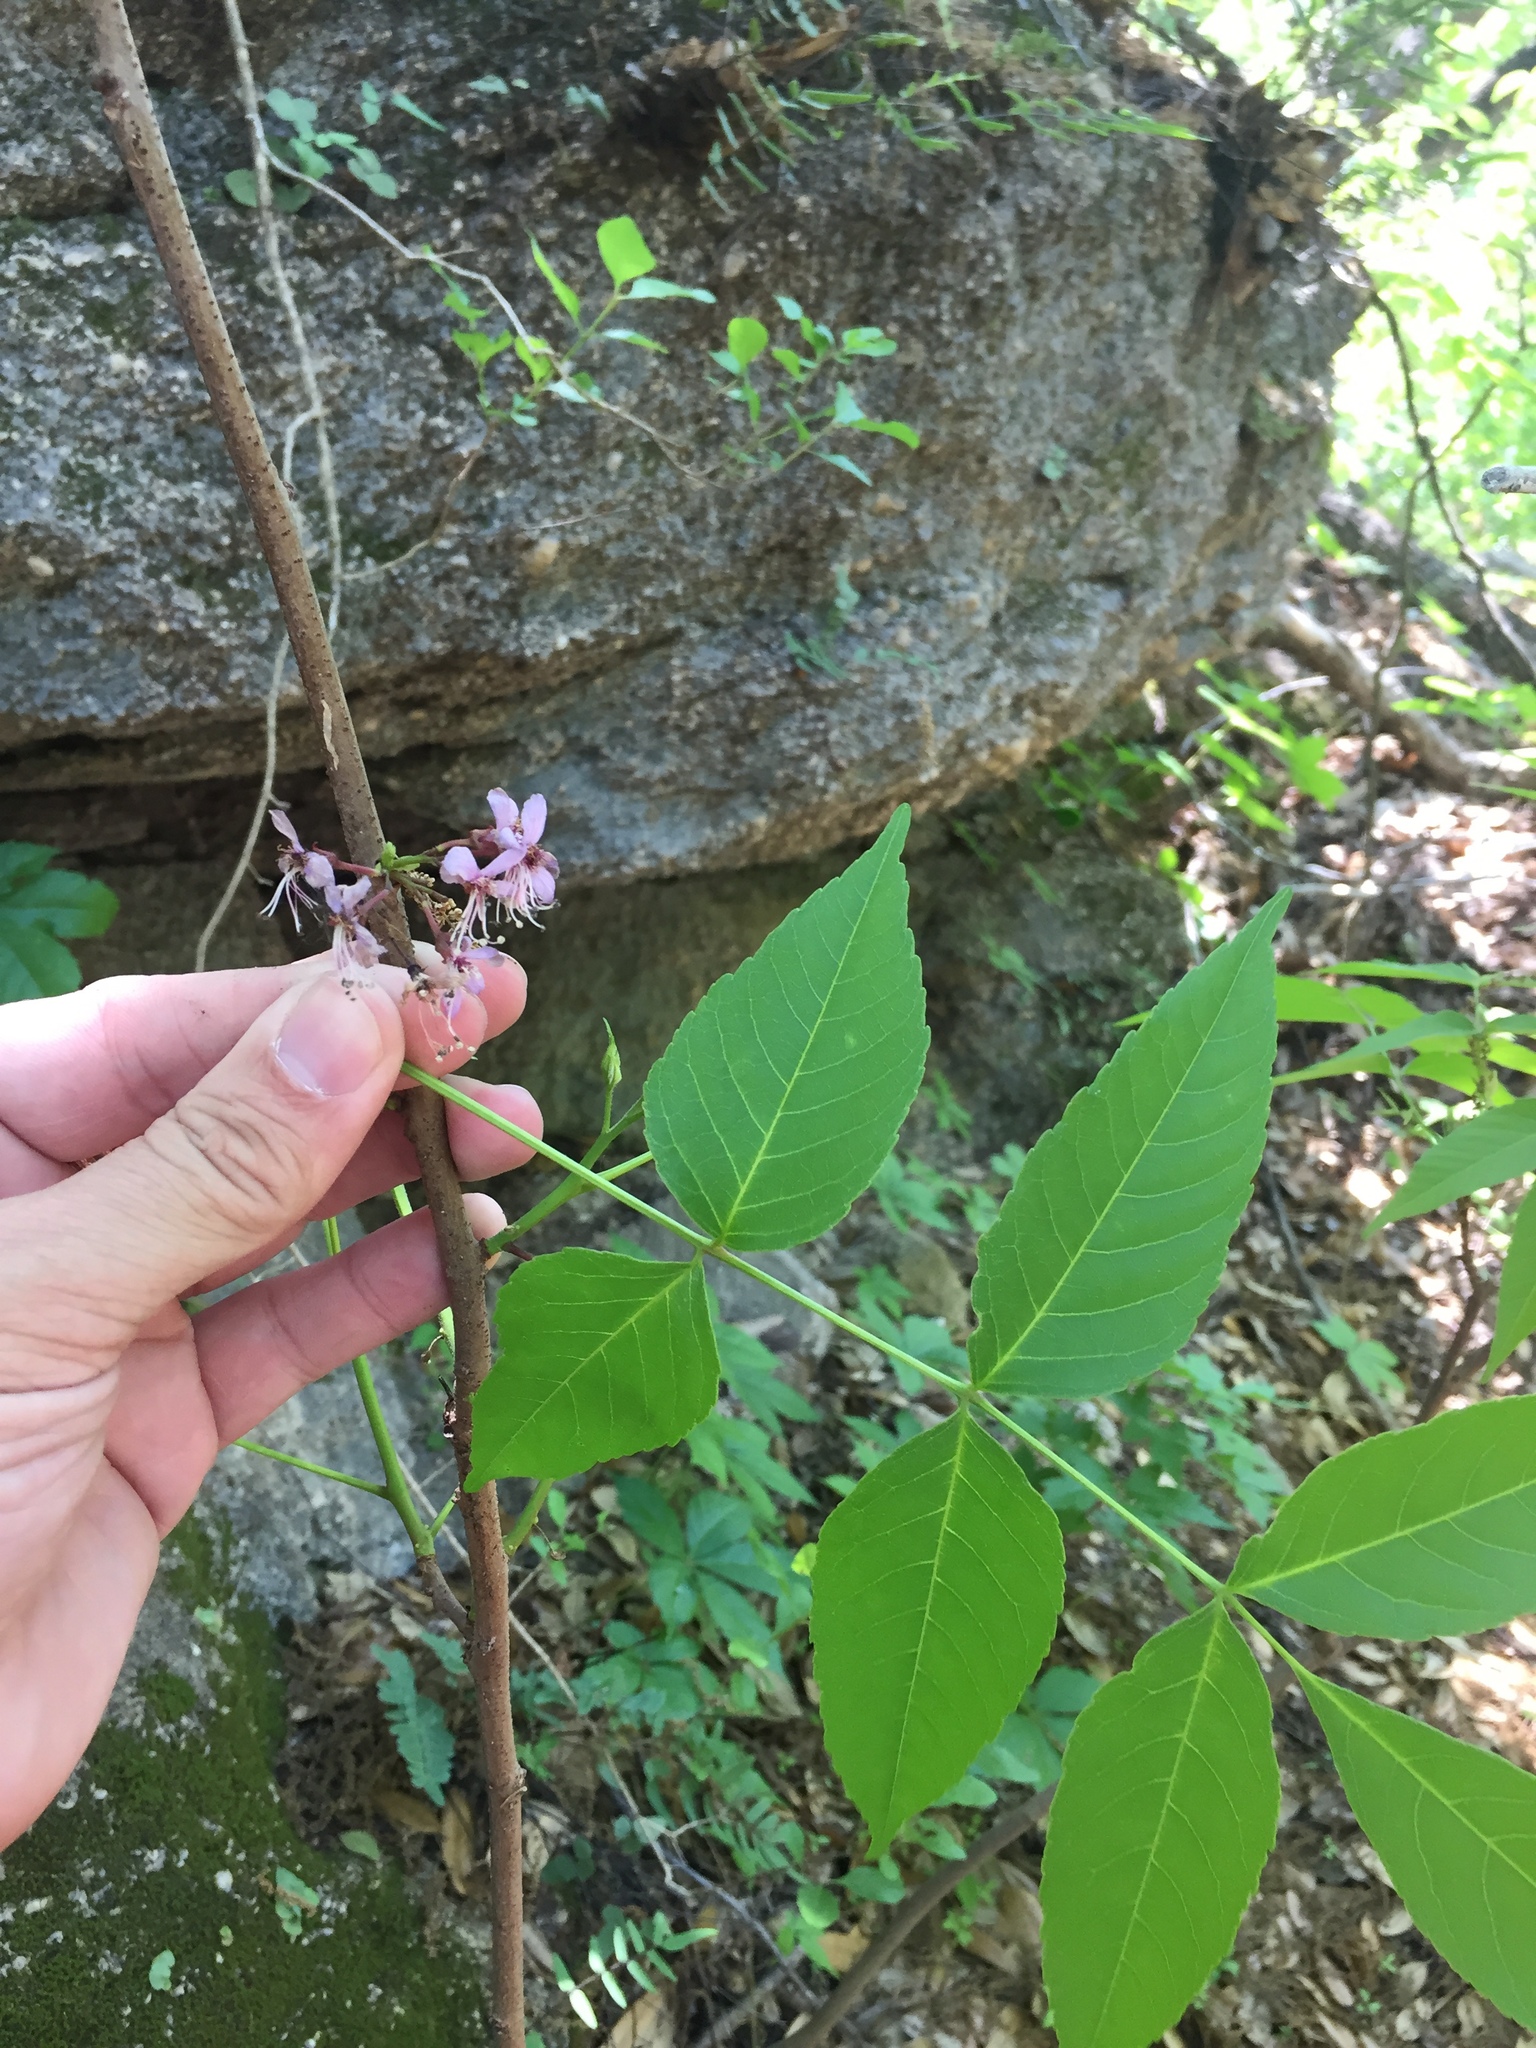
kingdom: Plantae
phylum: Tracheophyta
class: Magnoliopsida
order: Sapindales
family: Sapindaceae
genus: Ungnadia
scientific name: Ungnadia speciosa
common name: Texas-buckeye
